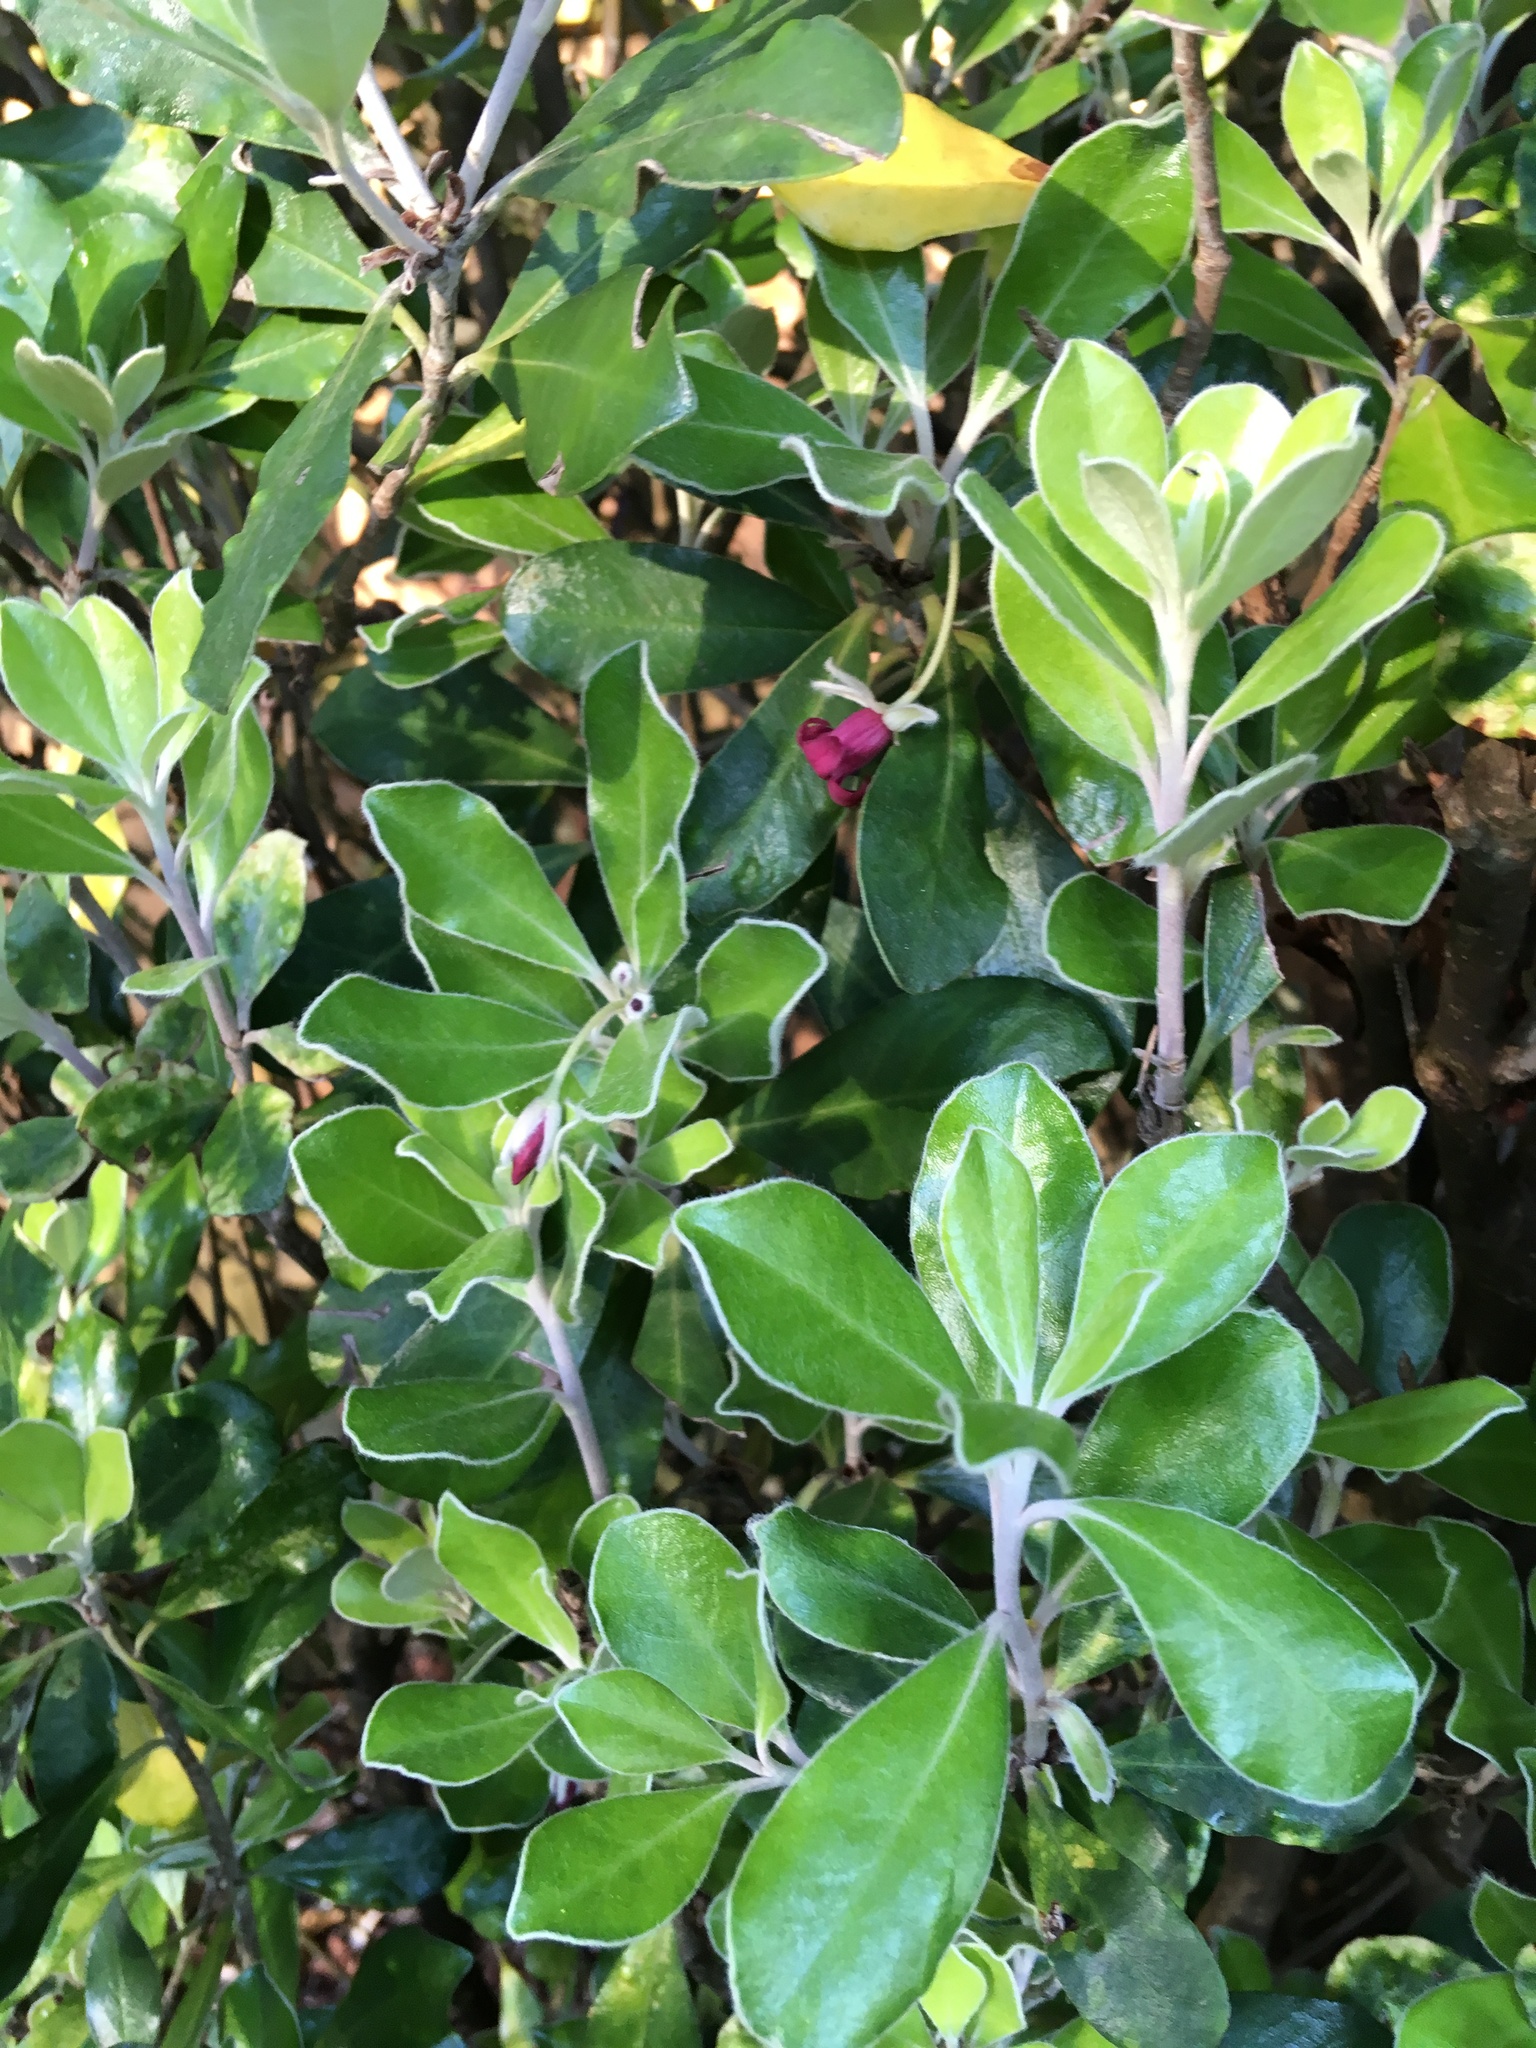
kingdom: Plantae
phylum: Tracheophyta
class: Magnoliopsida
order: Apiales
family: Pittosporaceae
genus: Pittosporum
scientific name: Pittosporum crassifolium
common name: Karo
